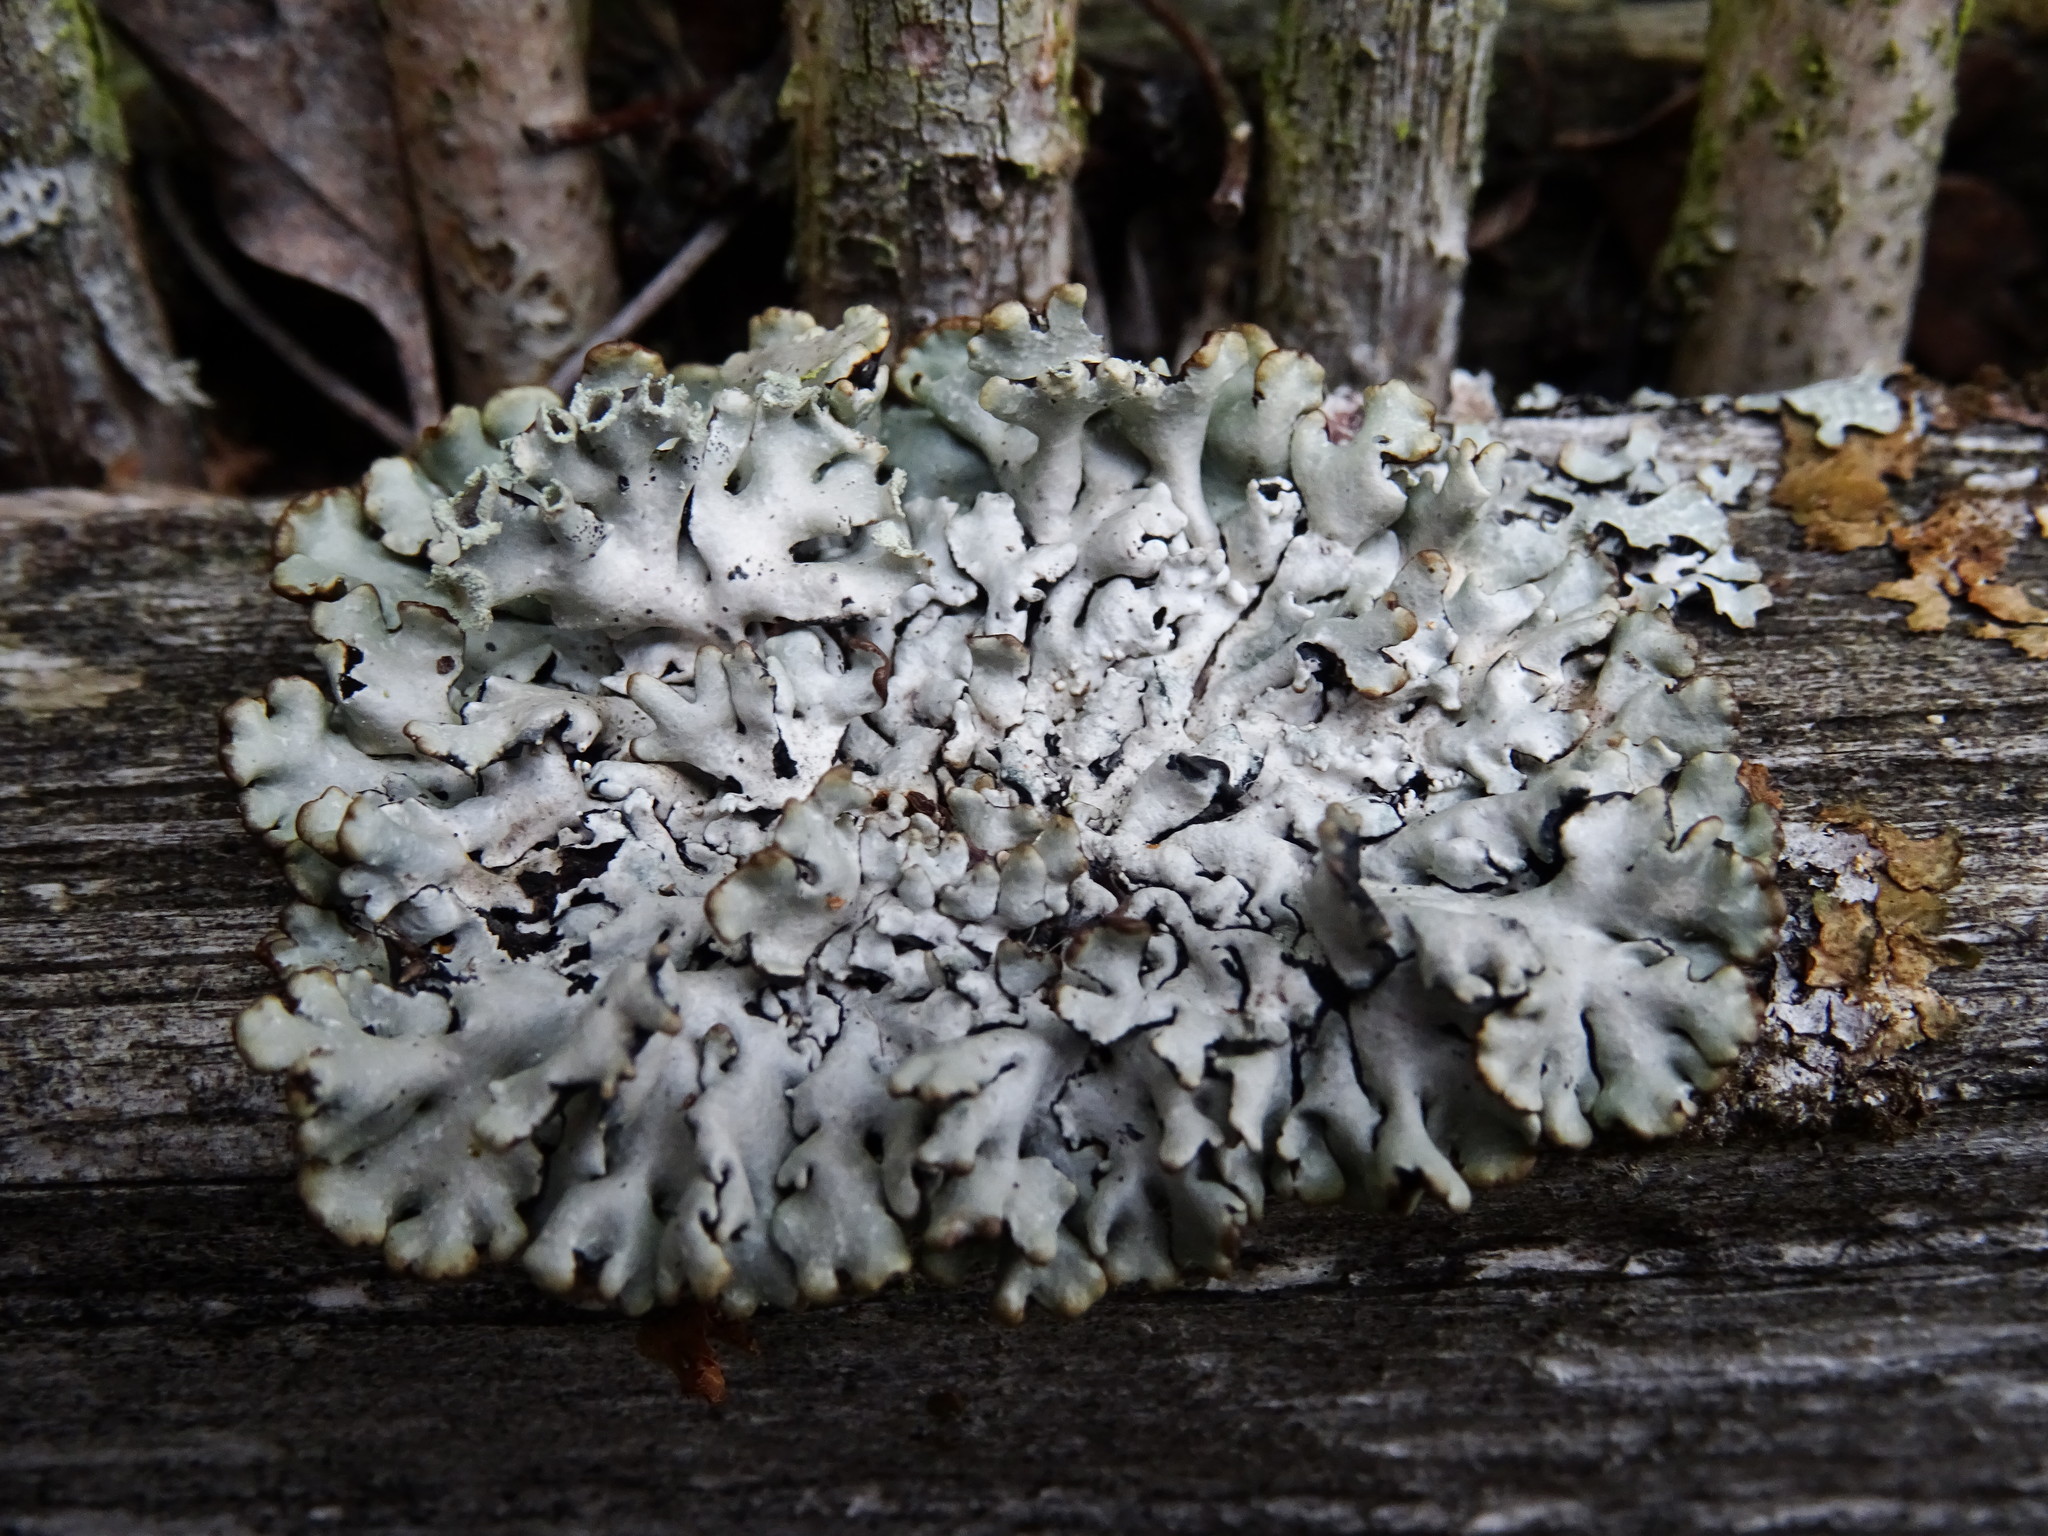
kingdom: Fungi
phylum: Ascomycota
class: Lecanoromycetes
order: Lecanorales
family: Parmeliaceae
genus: Hypogymnia
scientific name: Hypogymnia physodes
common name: Dark crottle
